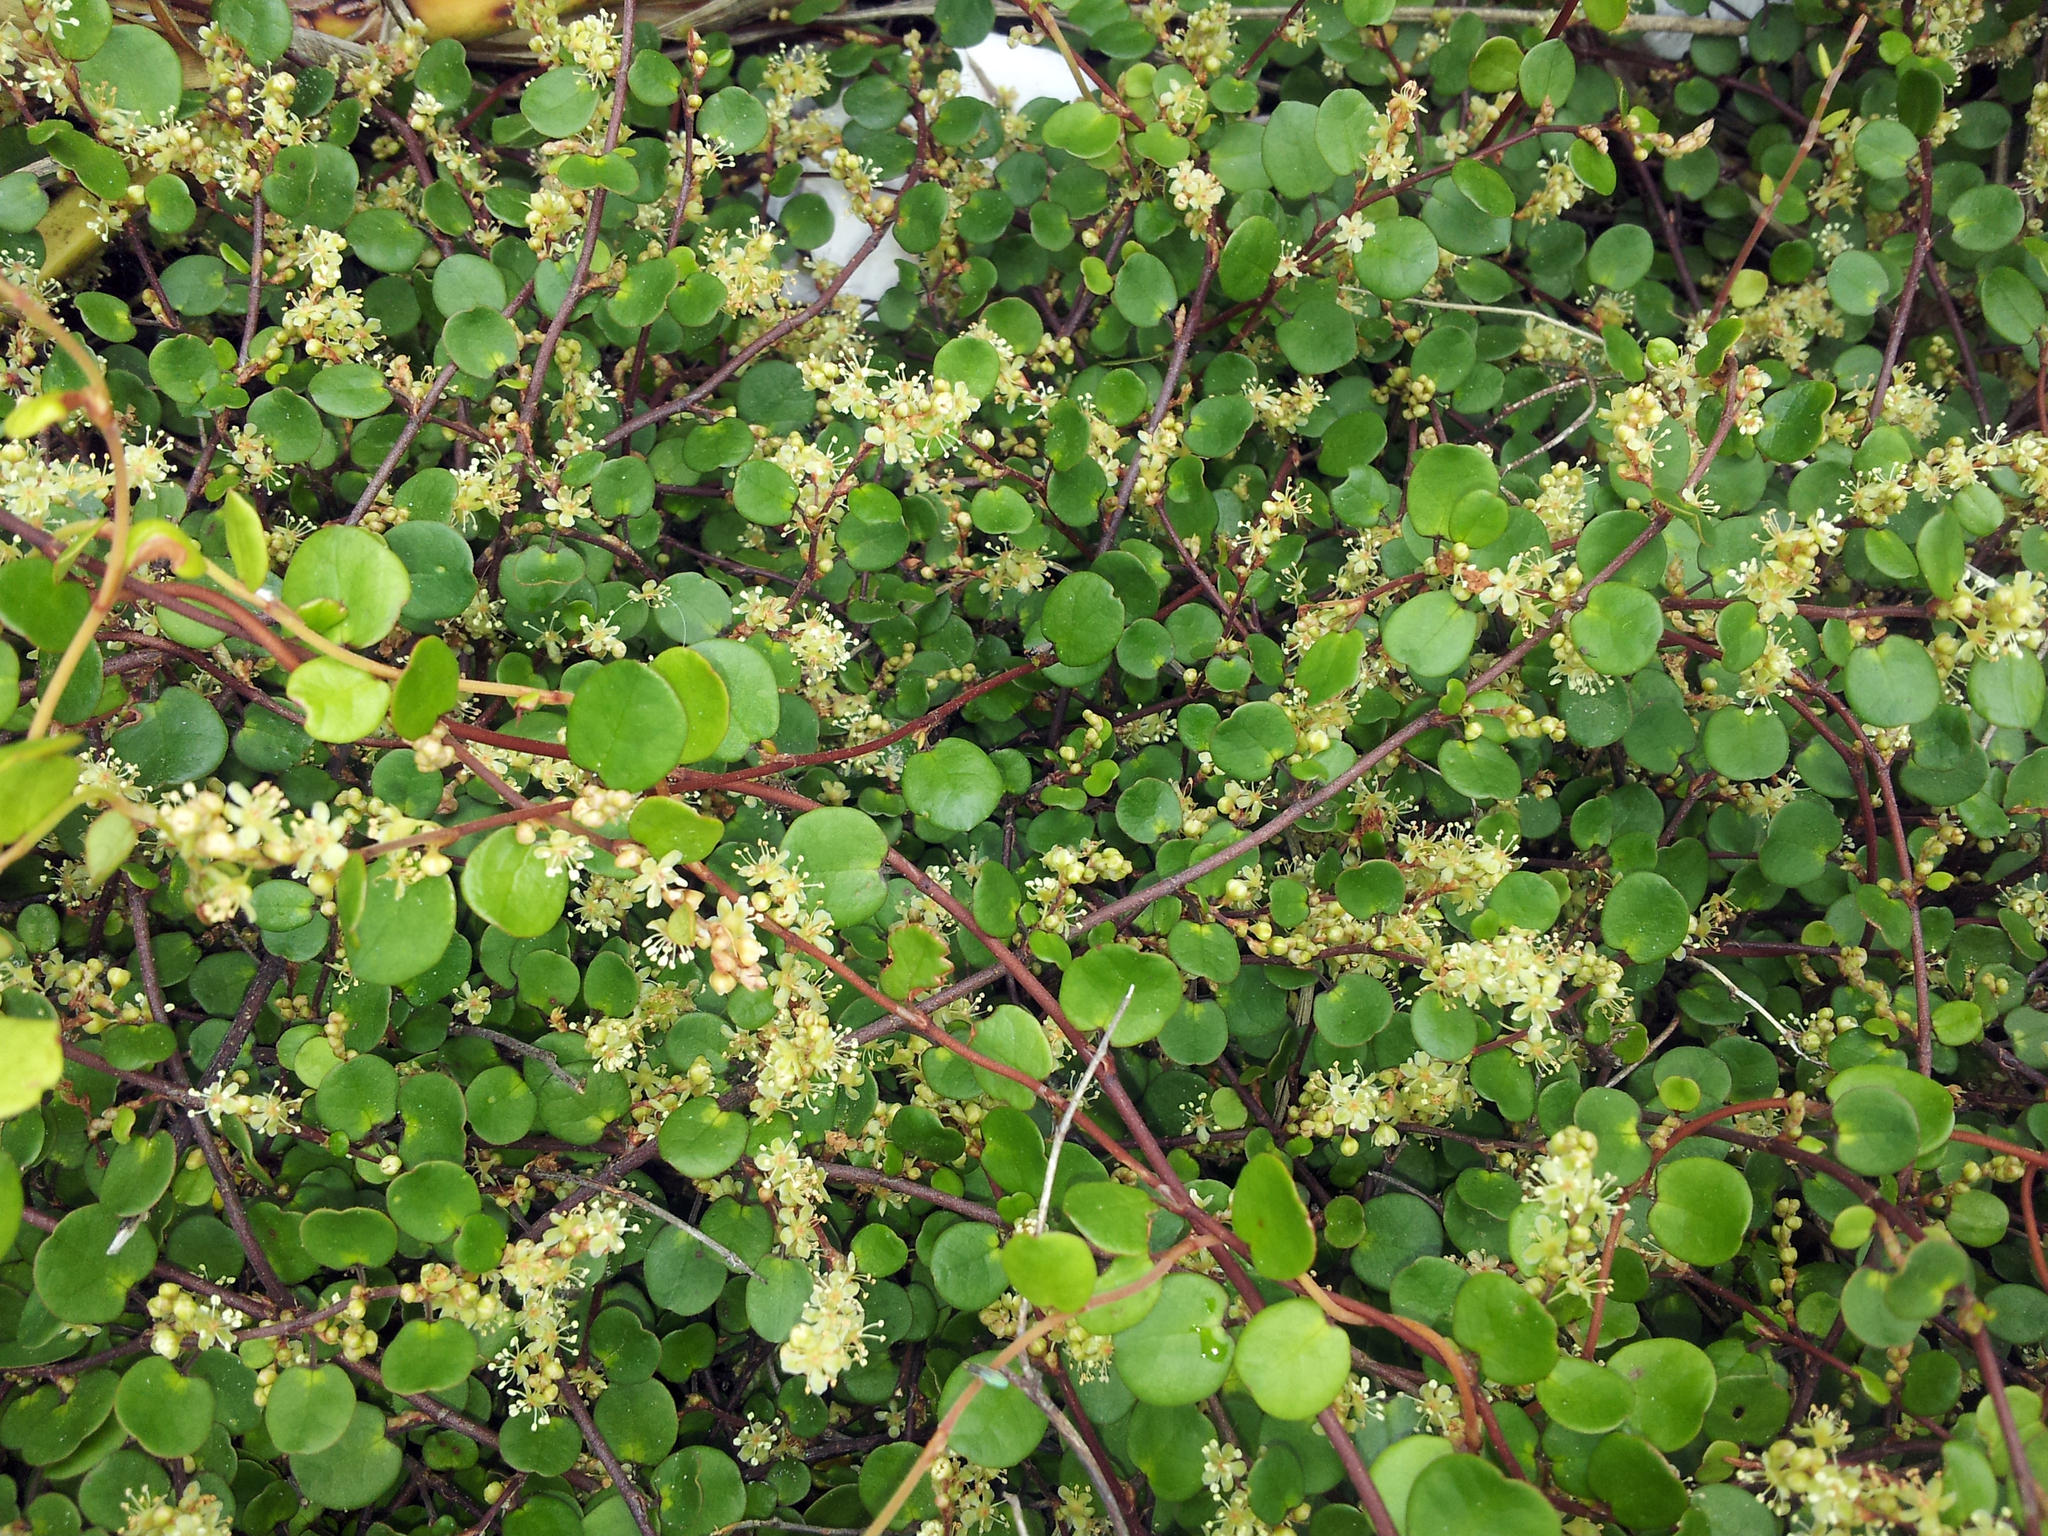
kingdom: Plantae
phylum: Tracheophyta
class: Magnoliopsida
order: Caryophyllales
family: Polygonaceae
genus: Muehlenbeckia
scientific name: Muehlenbeckia complexa
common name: Wireplant
